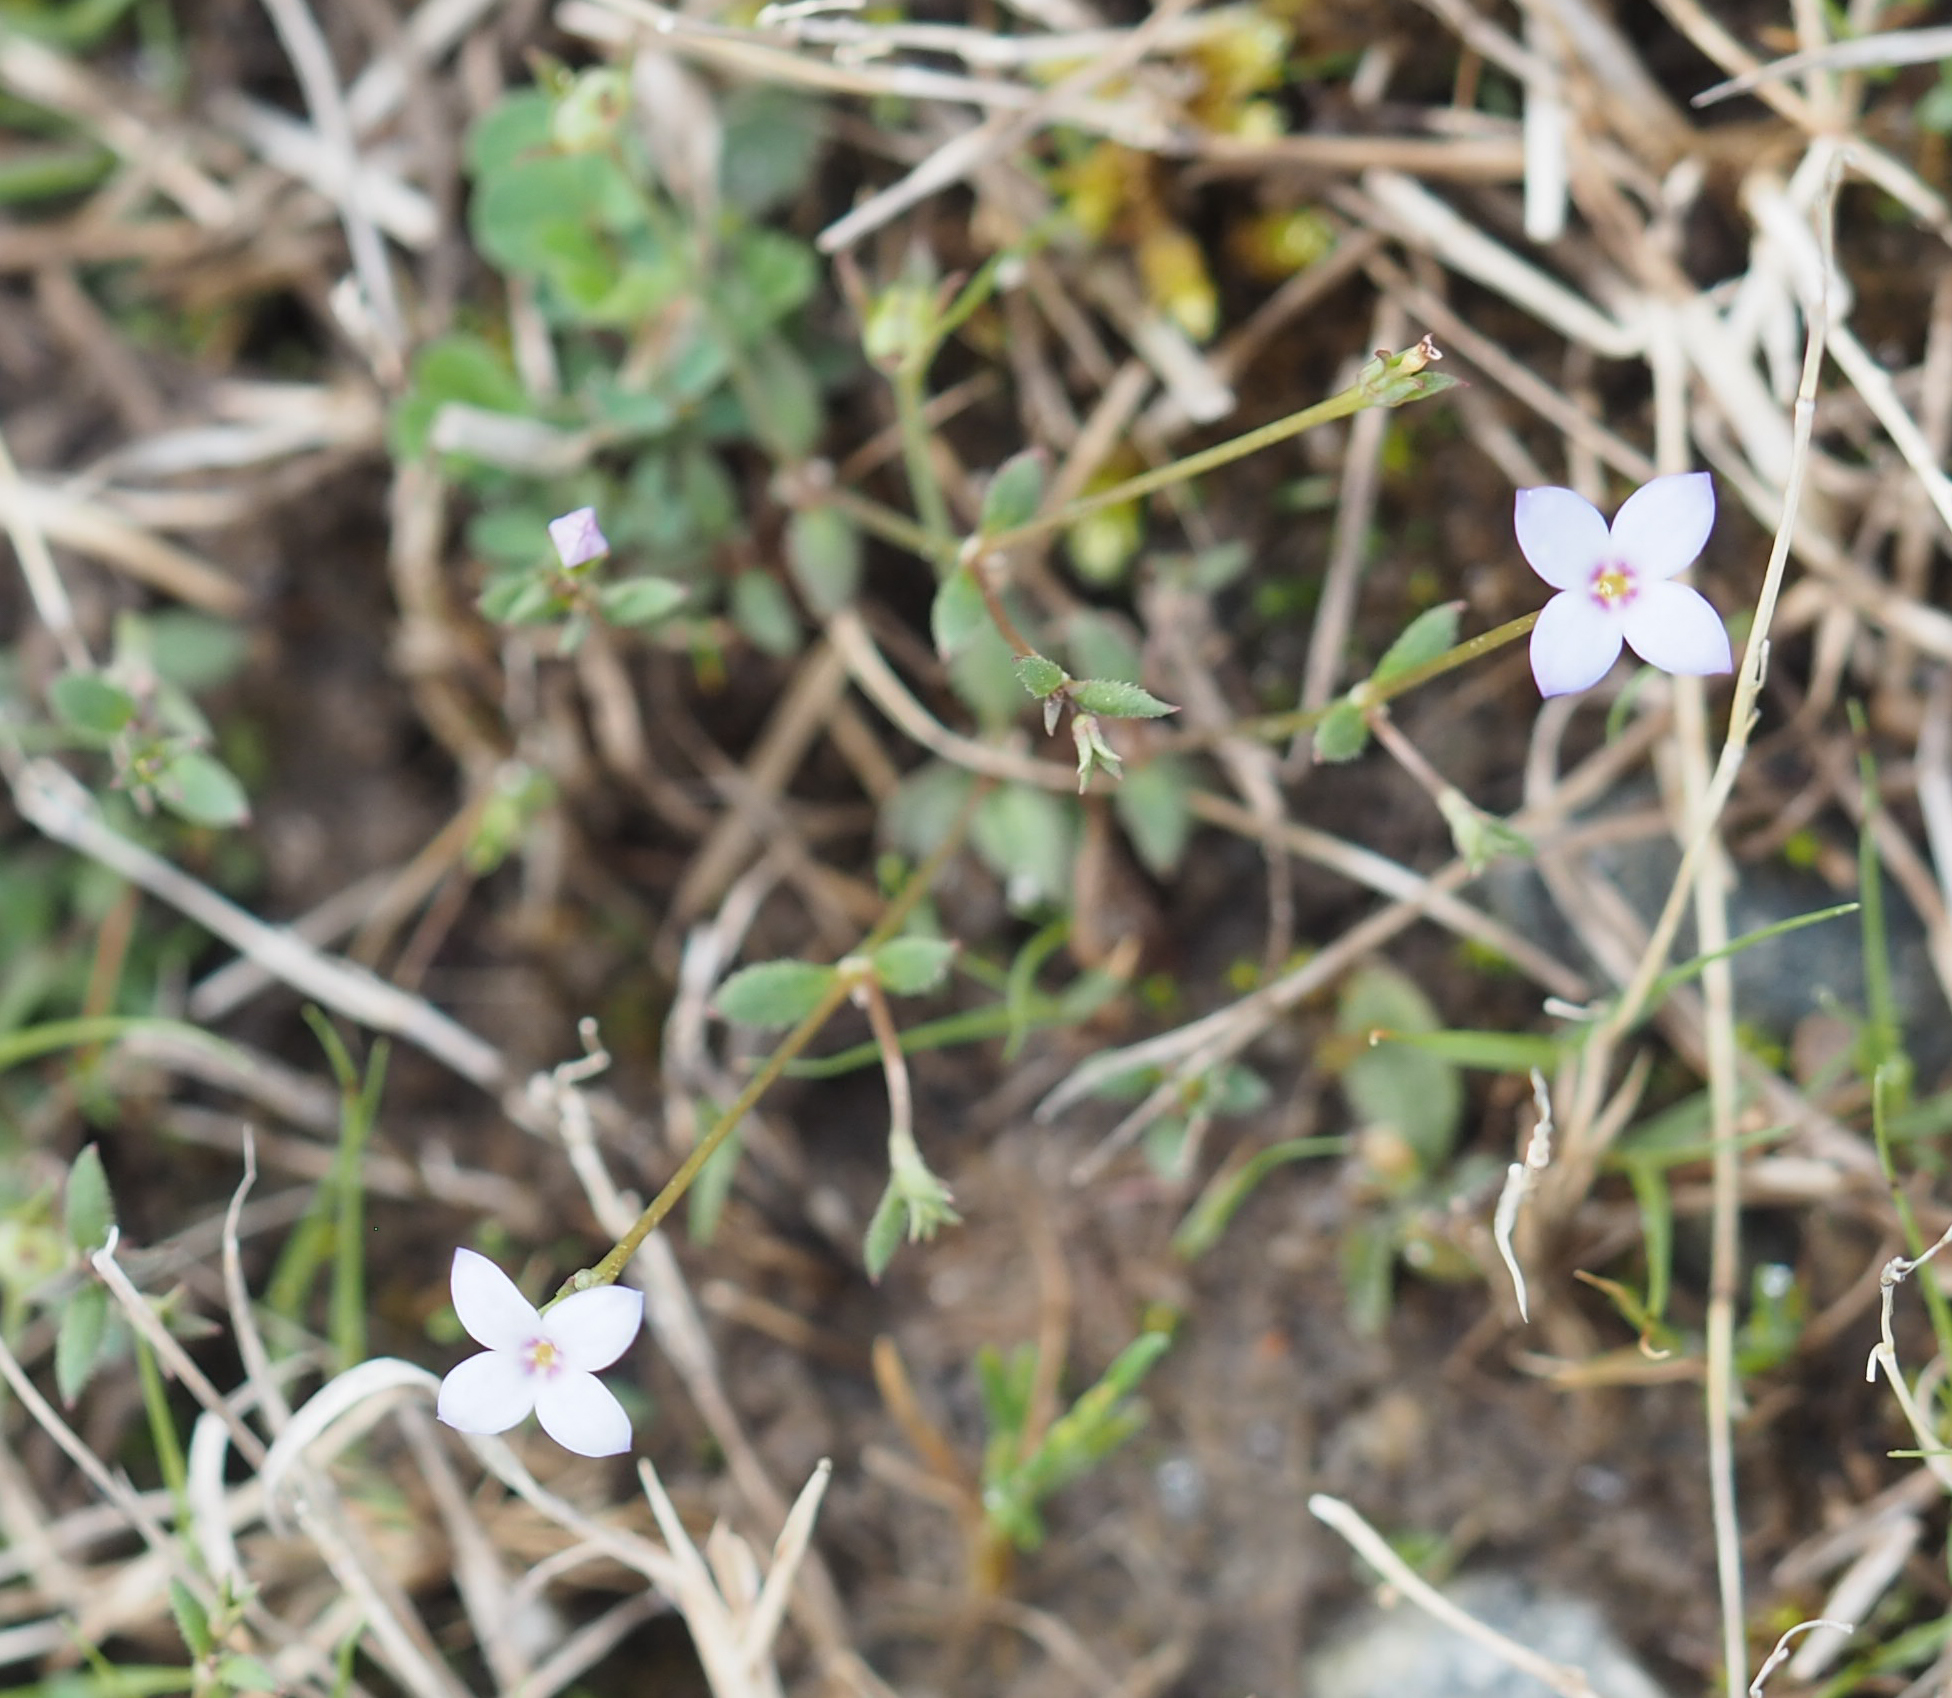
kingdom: Plantae
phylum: Tracheophyta
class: Magnoliopsida
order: Gentianales
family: Rubiaceae
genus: Houstonia
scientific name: Houstonia pusilla
